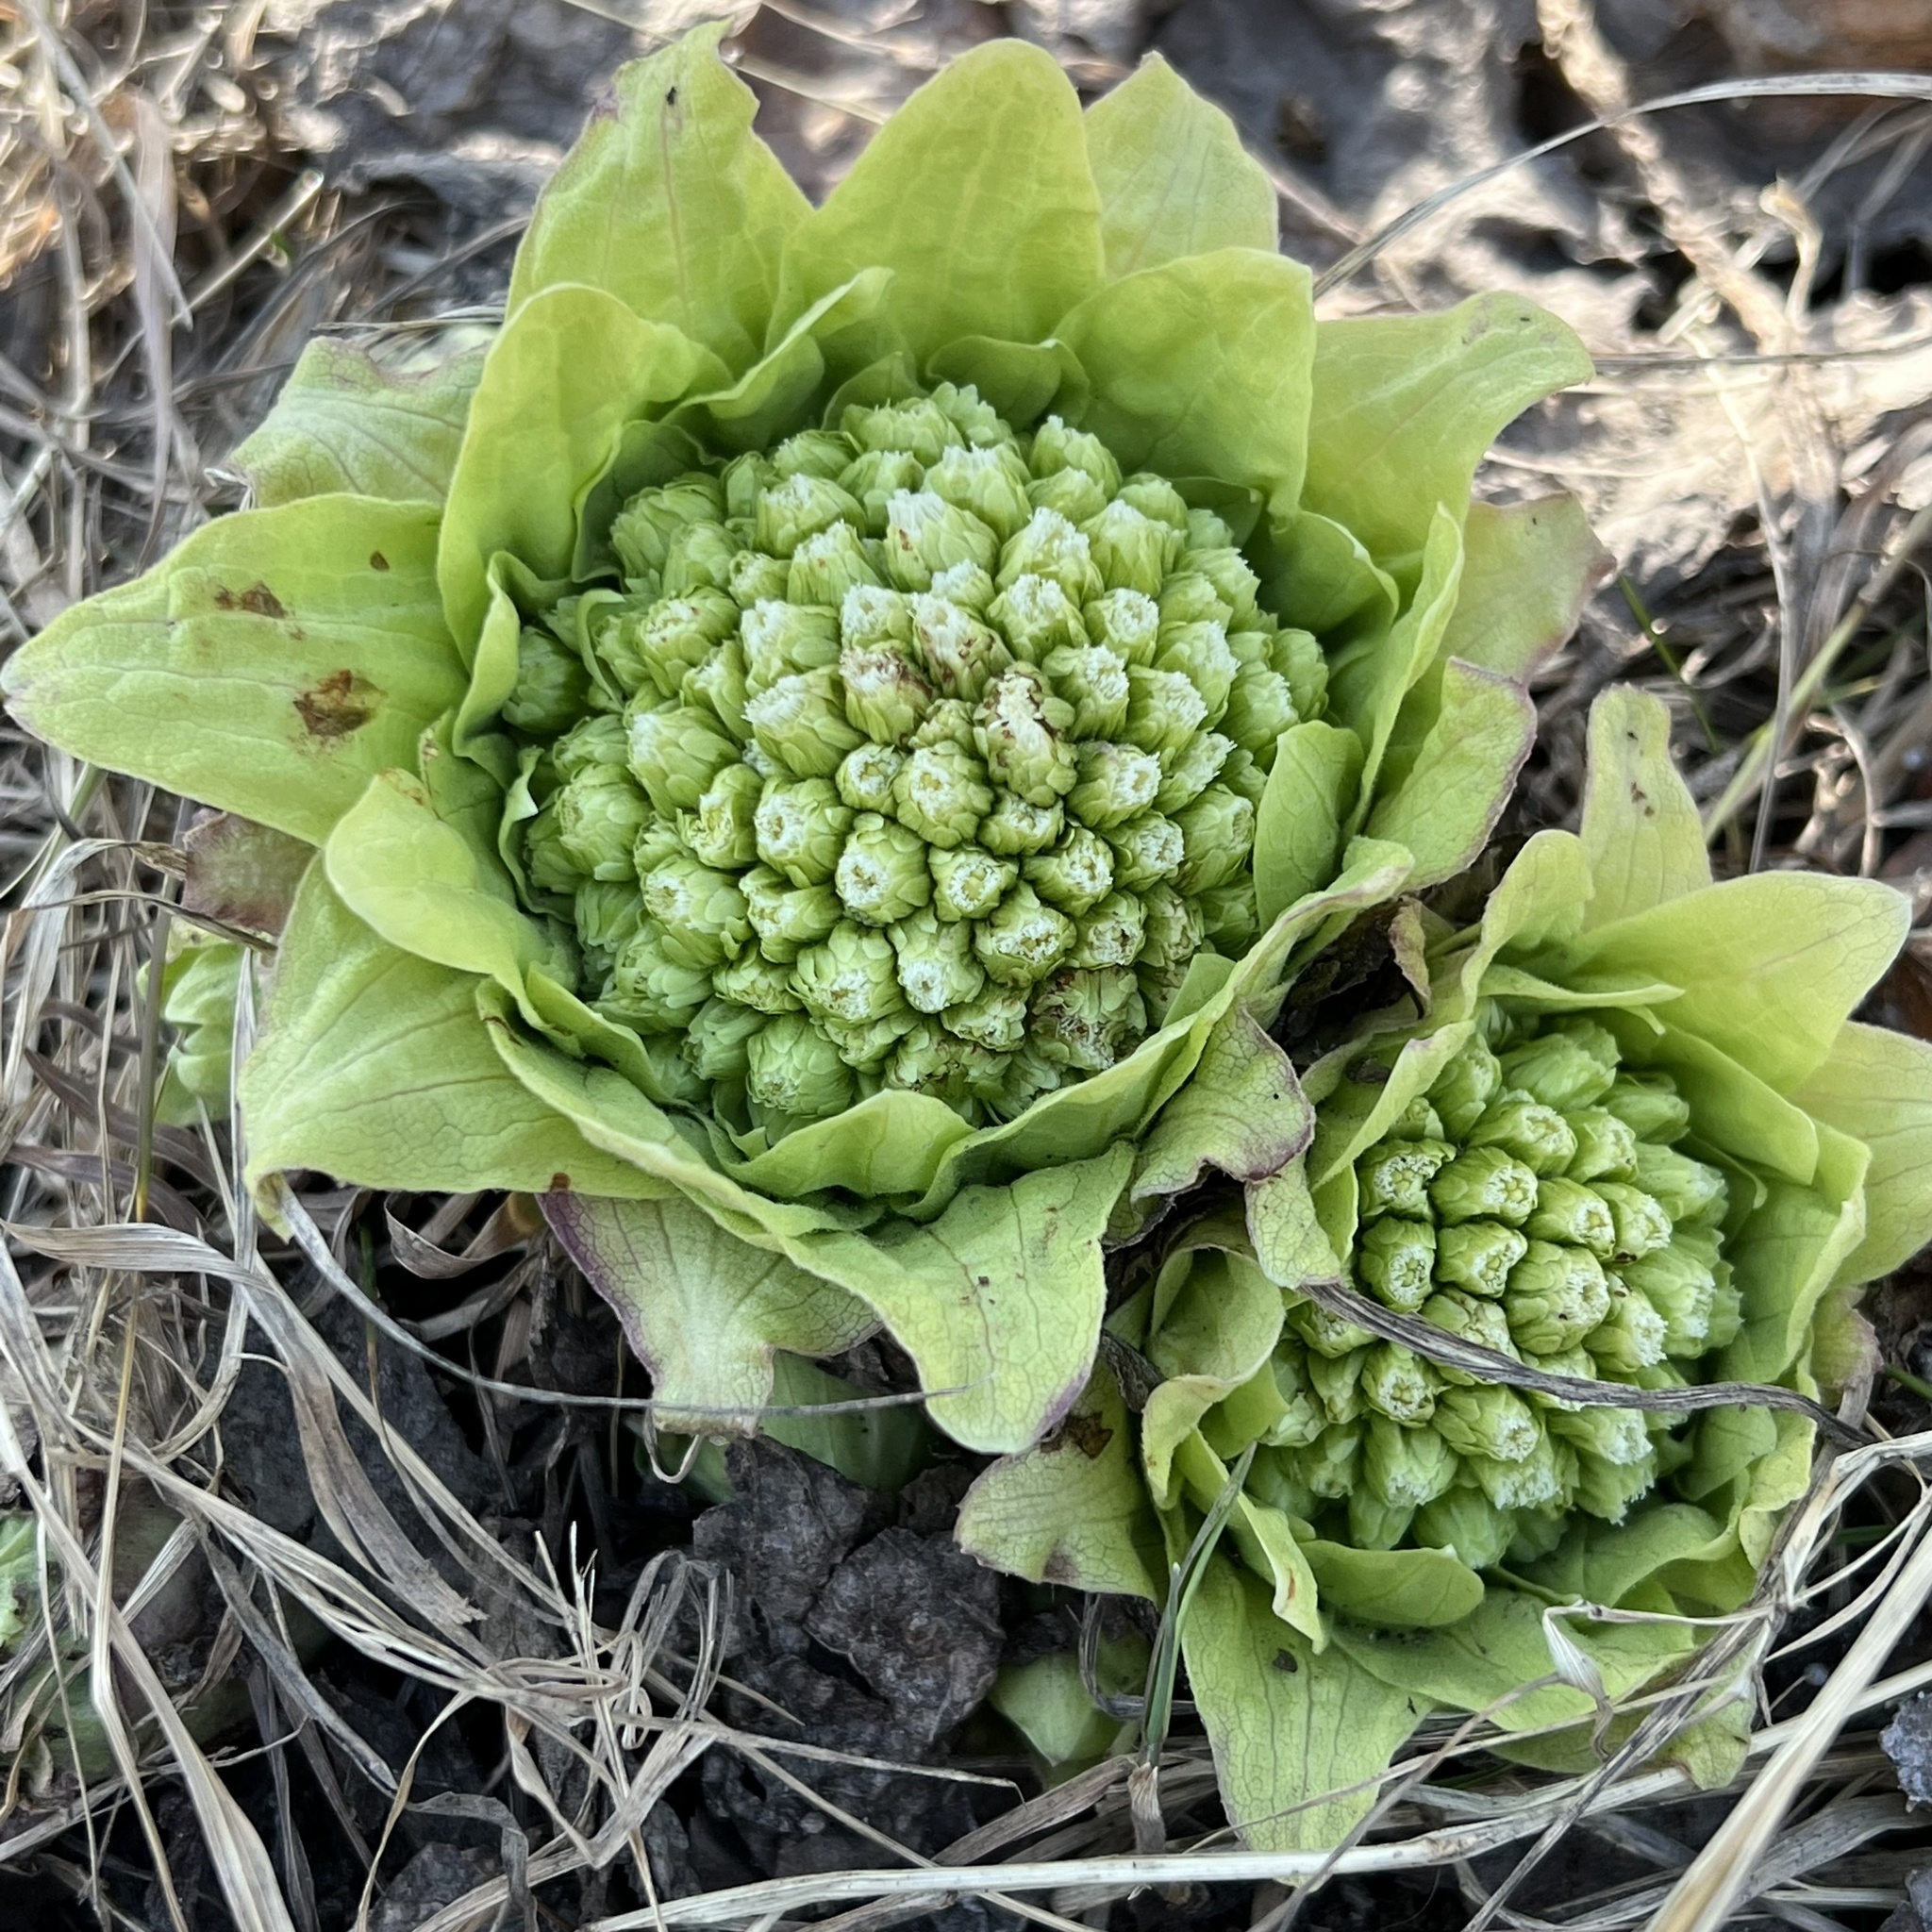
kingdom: Plantae
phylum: Tracheophyta
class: Magnoliopsida
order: Asterales
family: Asteraceae
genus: Petasites
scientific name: Petasites japonicus
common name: Giant butterbur
